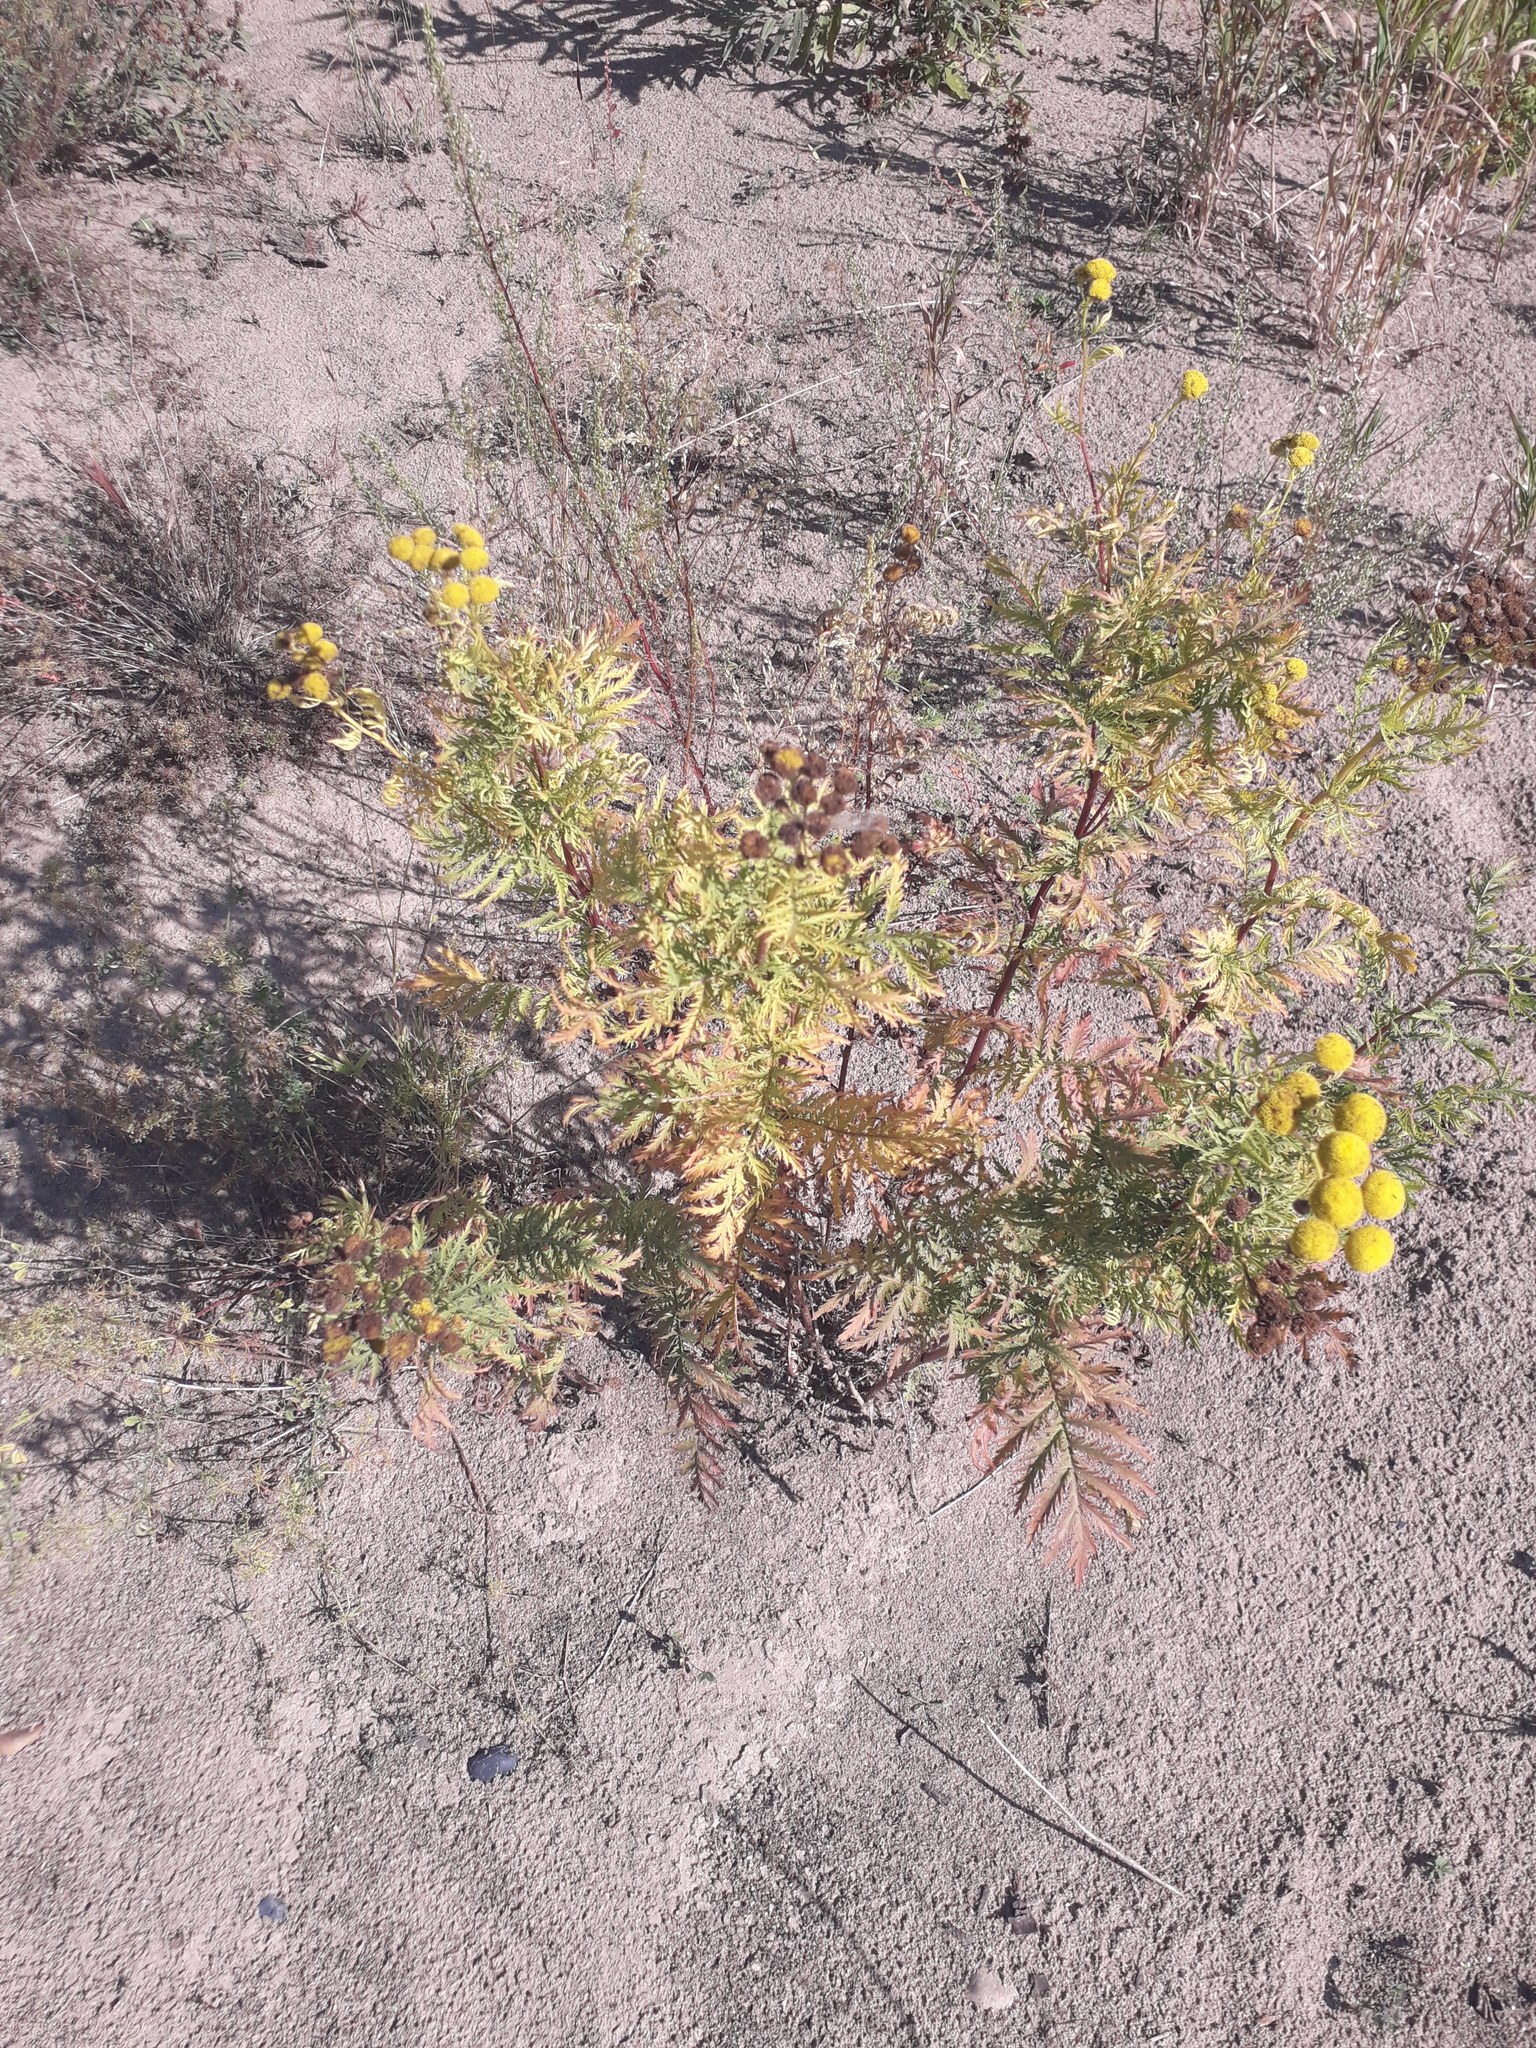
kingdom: Plantae
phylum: Tracheophyta
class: Magnoliopsida
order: Asterales
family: Asteraceae
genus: Tanacetum
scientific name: Tanacetum vulgare
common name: Common tansy
